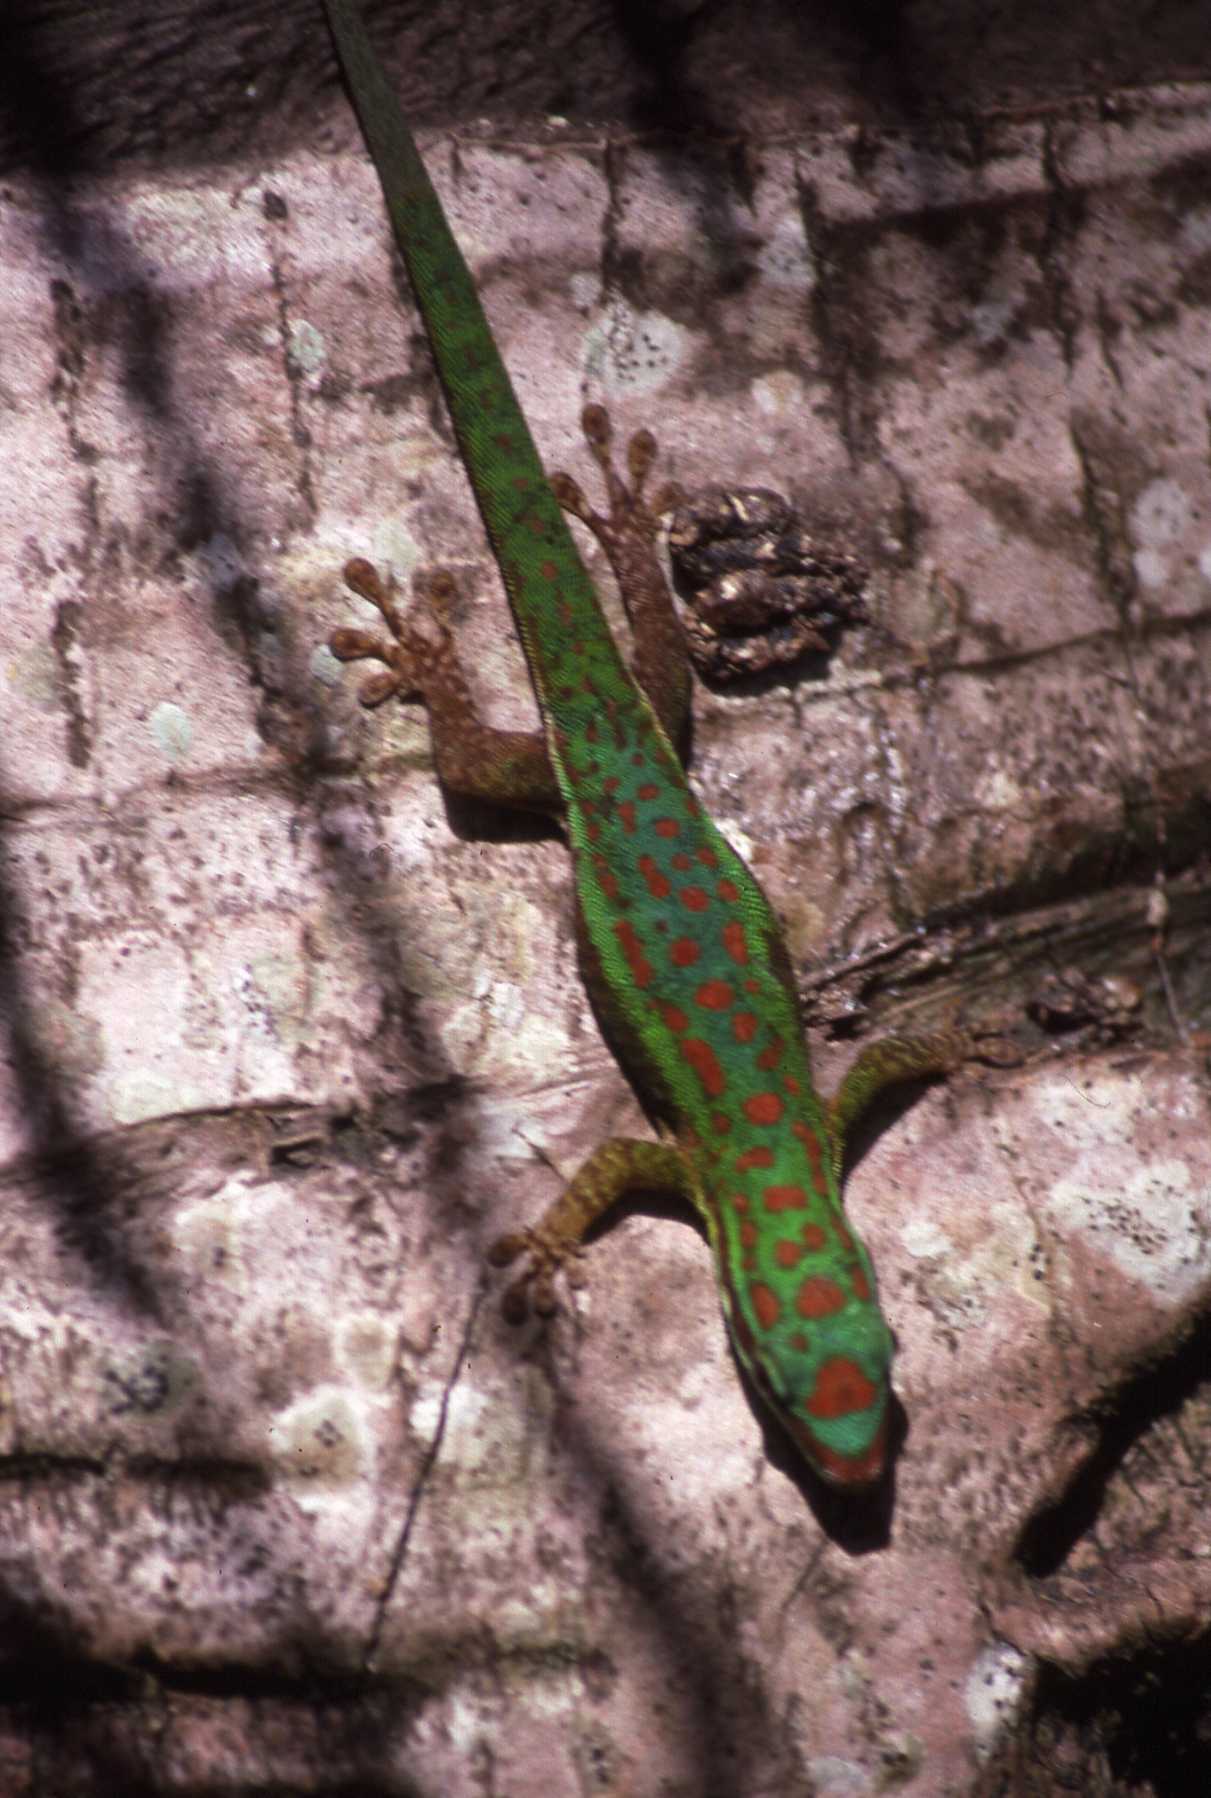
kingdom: Animalia
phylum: Chordata
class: Squamata
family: Gekkonidae
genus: Phelsuma
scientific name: Phelsuma cepediana
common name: Bluetail day gecko
